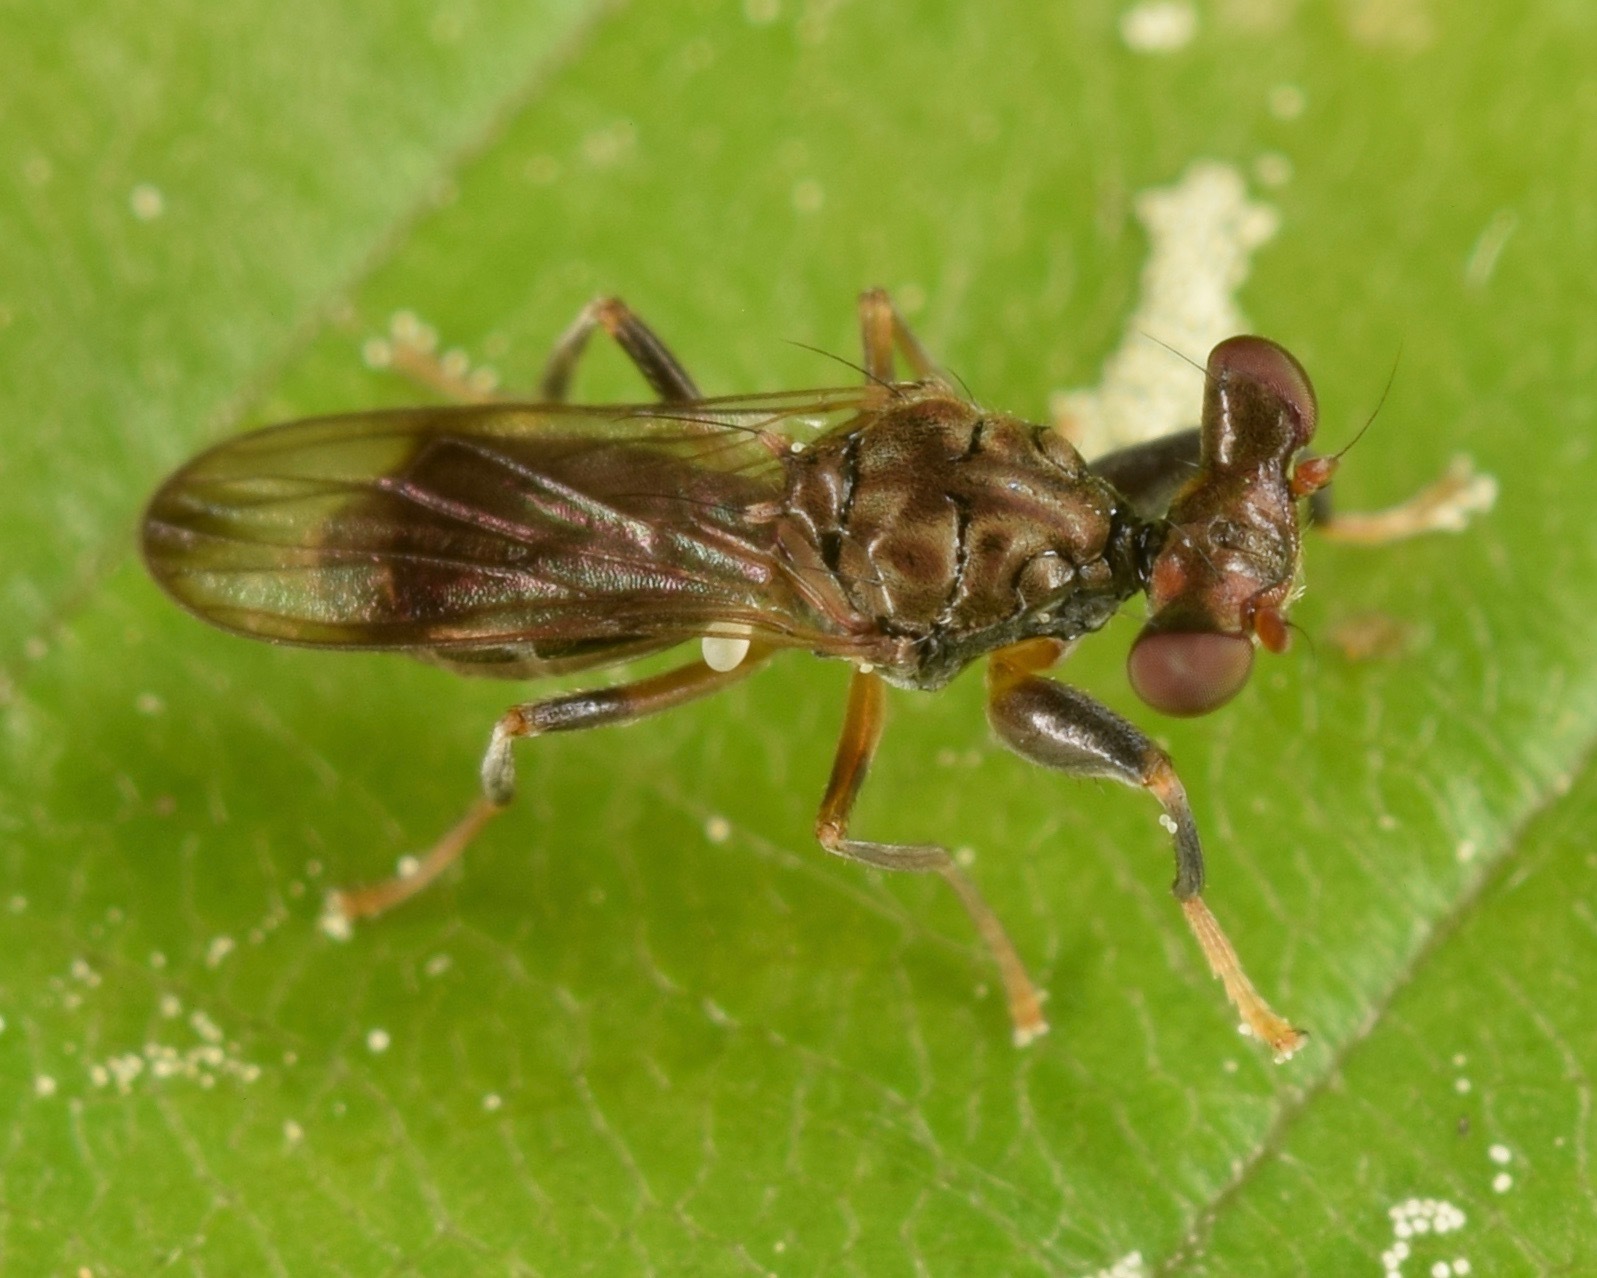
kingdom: Animalia
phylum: Arthropoda
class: Insecta
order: Diptera
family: Diopsidae
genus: Sphyracephala
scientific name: Sphyracephala brevicornis
